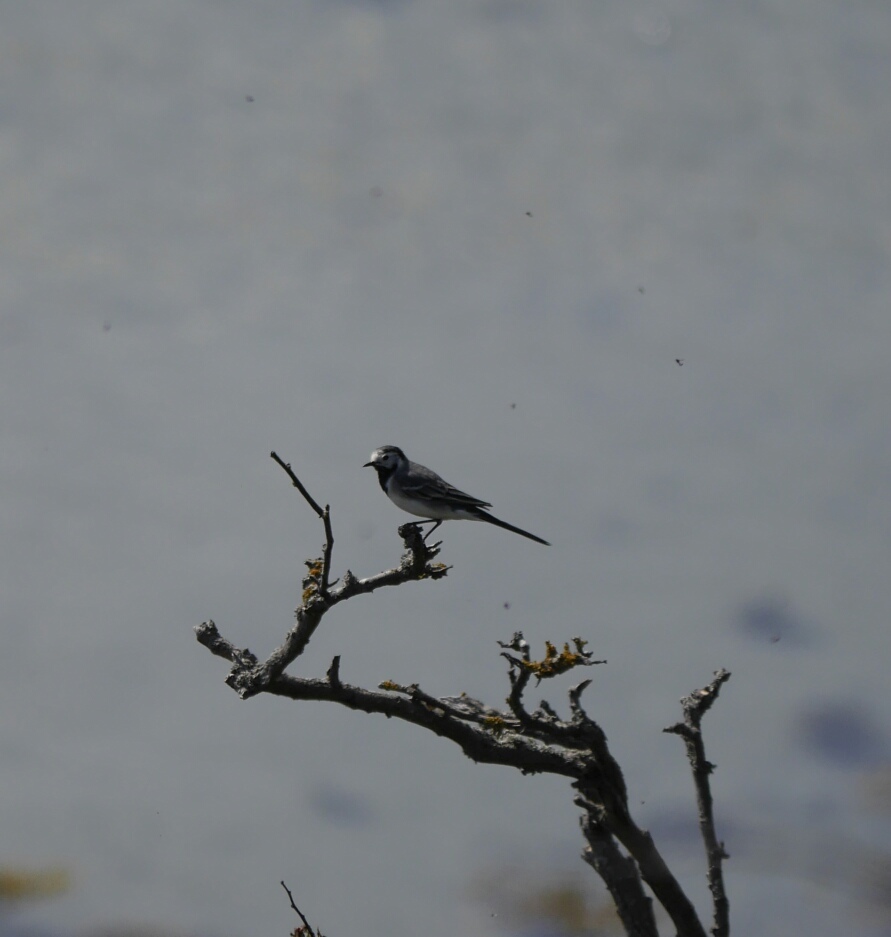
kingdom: Animalia
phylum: Chordata
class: Aves
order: Passeriformes
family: Motacillidae
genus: Motacilla
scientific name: Motacilla alba
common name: White wagtail
